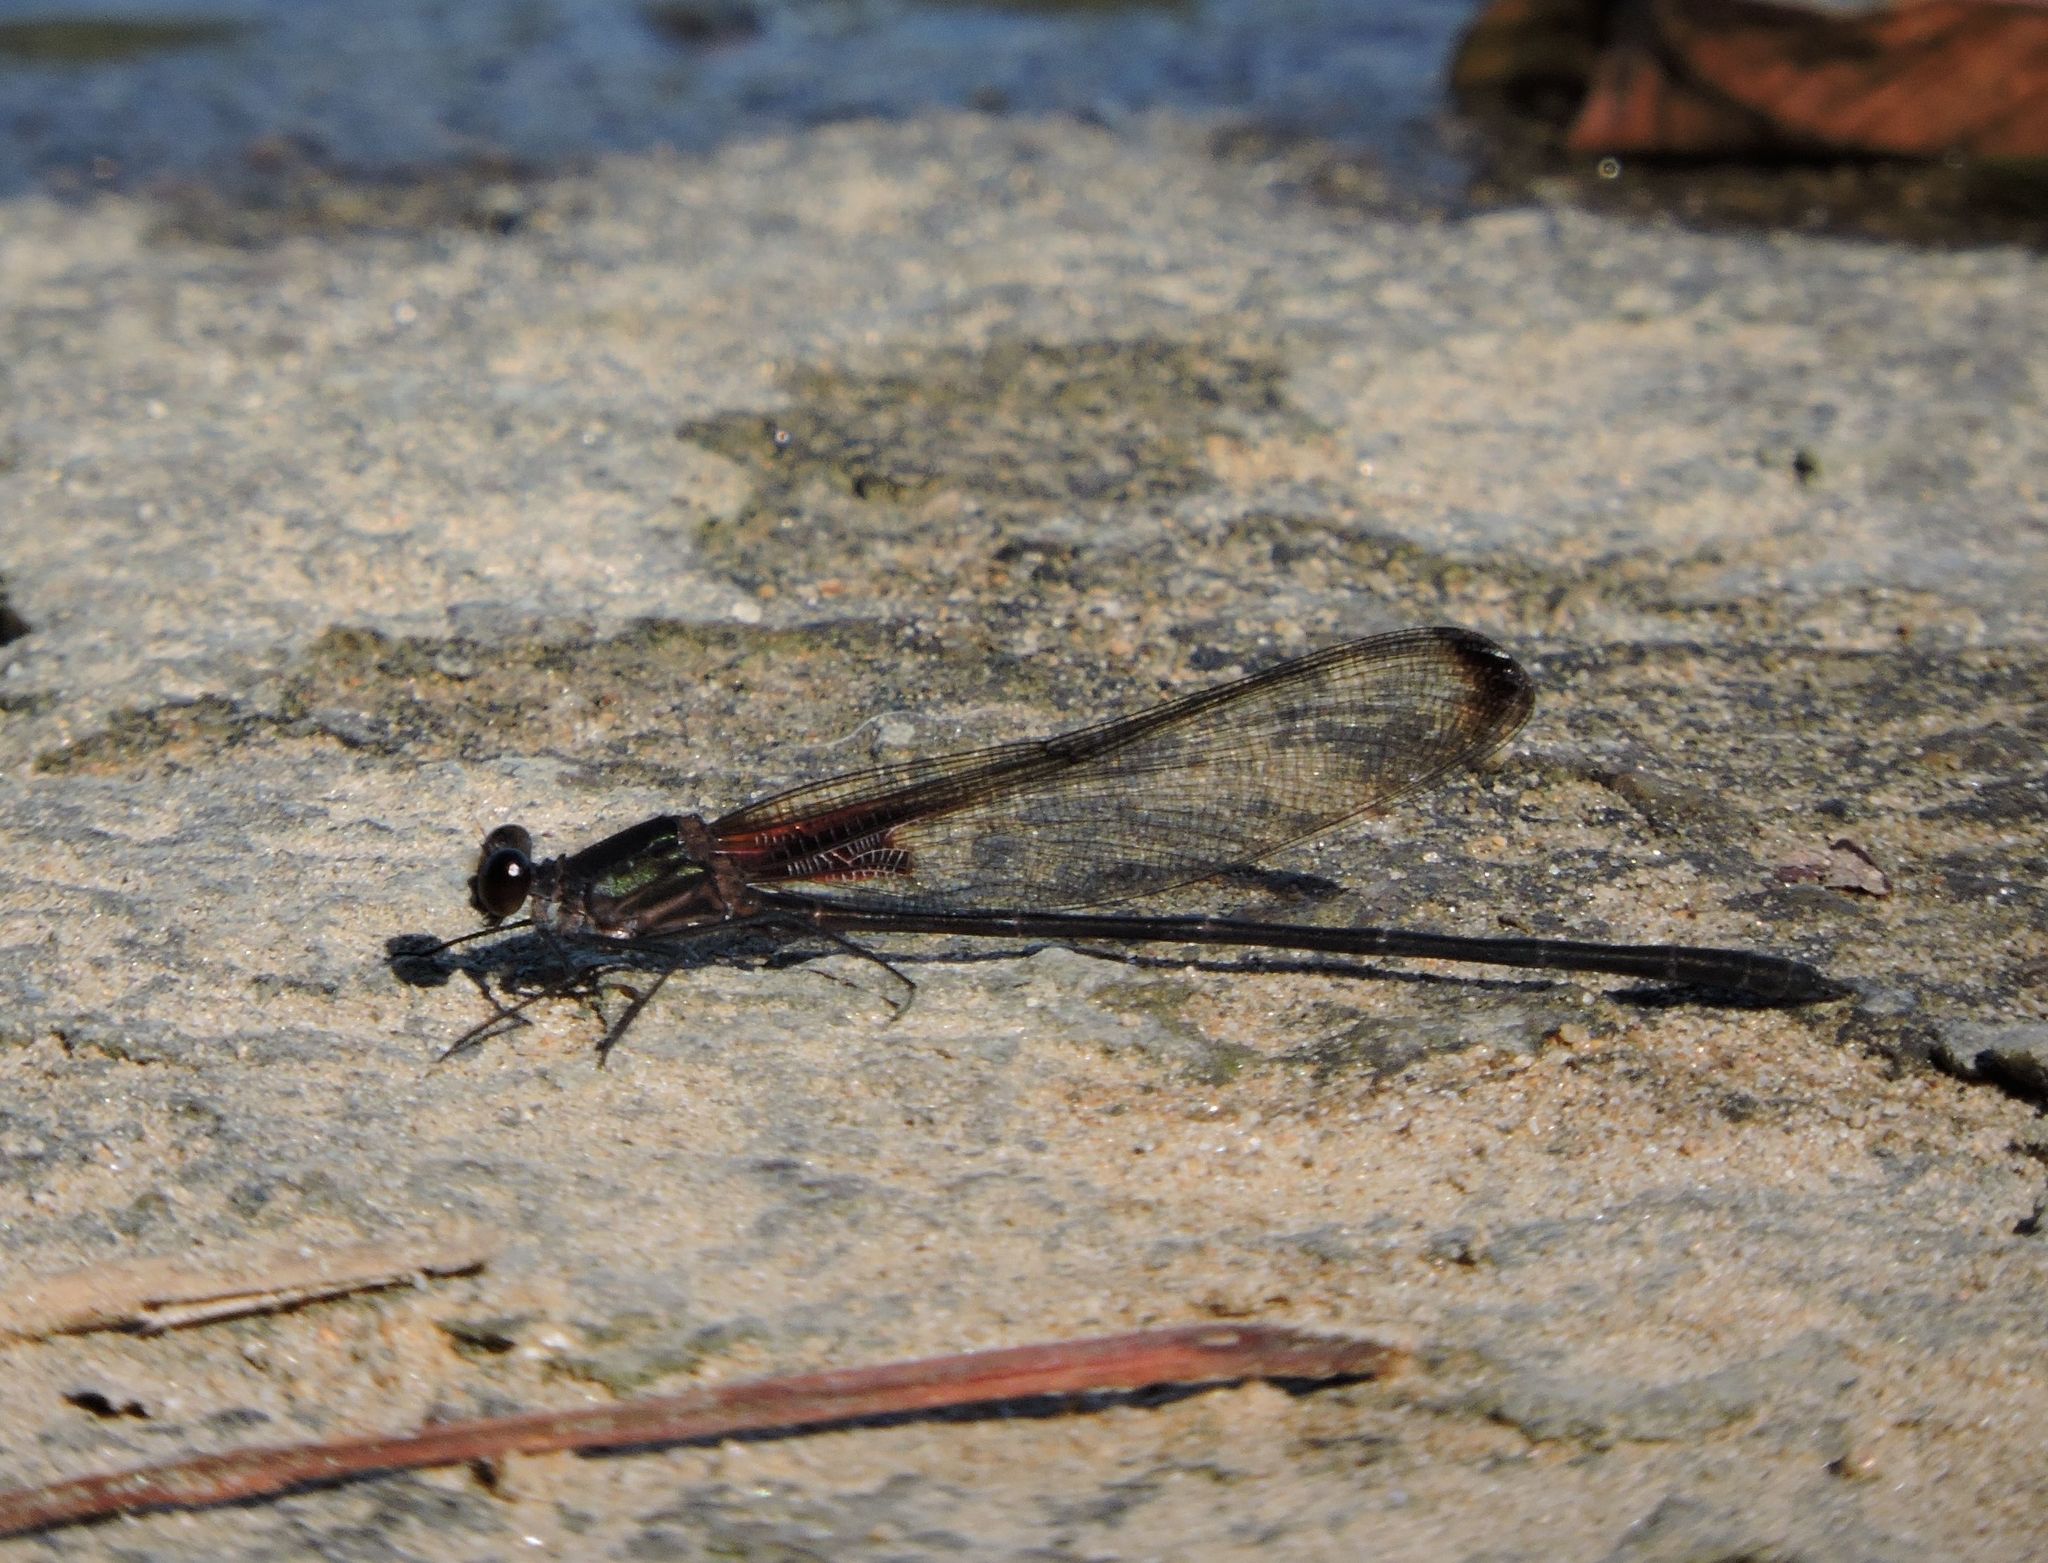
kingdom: Animalia
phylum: Arthropoda
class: Insecta
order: Odonata
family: Calopterygidae
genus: Hetaerina
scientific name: Hetaerina titia
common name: Smoky rubyspot
